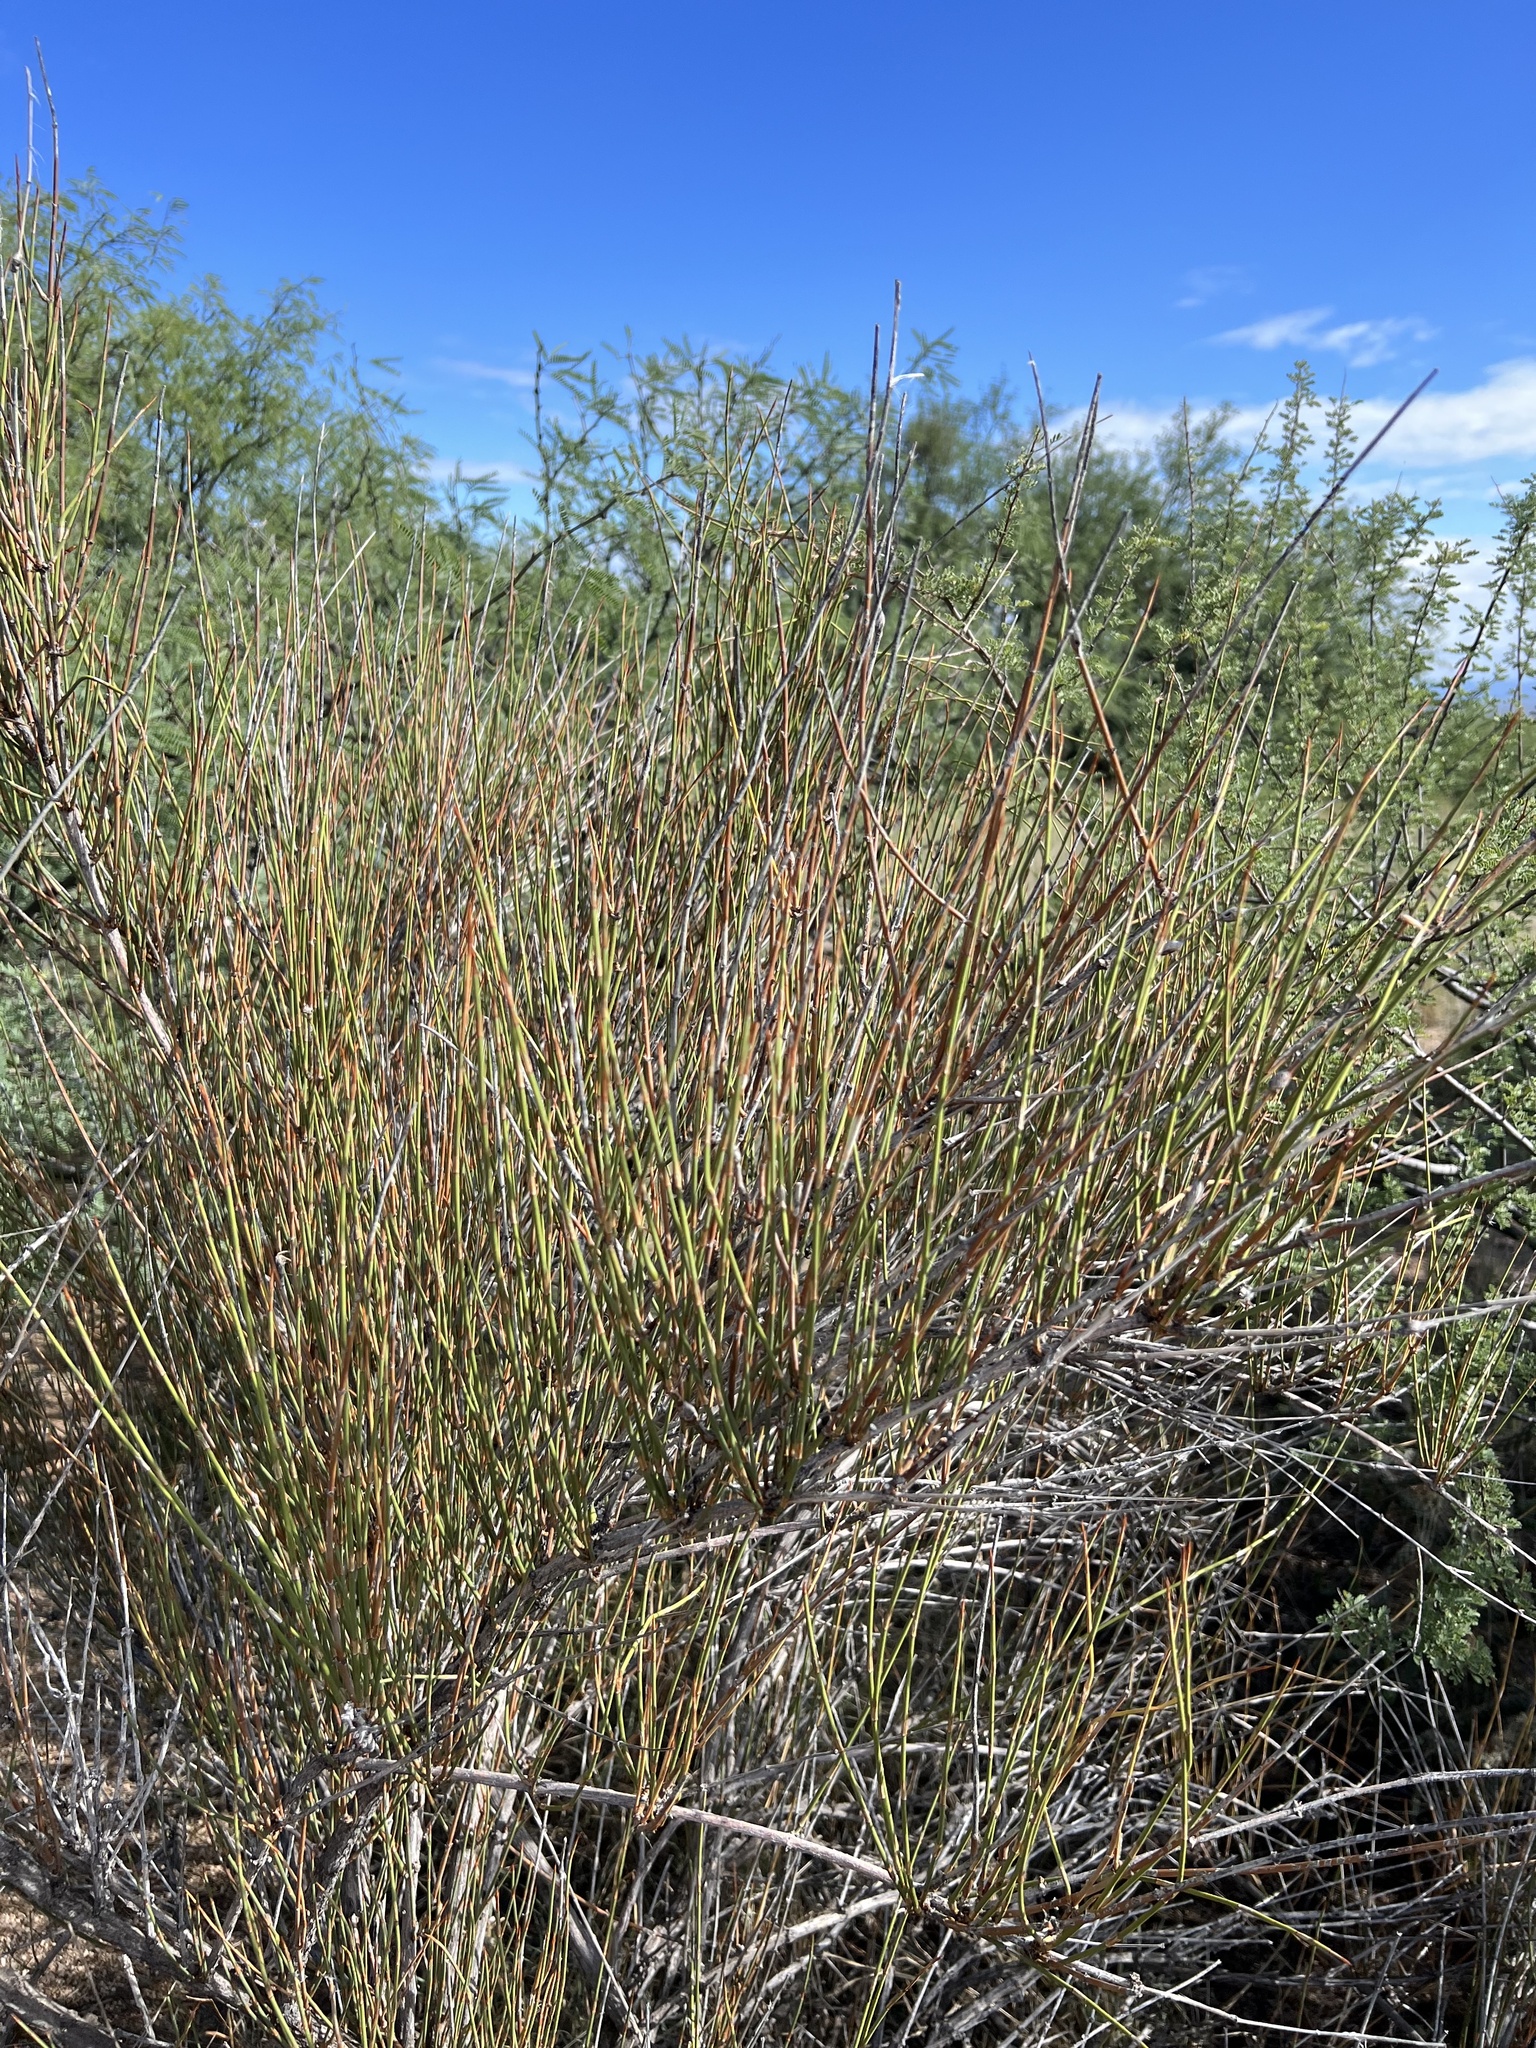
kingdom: Plantae
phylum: Tracheophyta
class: Gnetopsida
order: Ephedrales
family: Ephedraceae
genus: Ephedra
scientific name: Ephedra trifurca
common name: Mexican-tea
